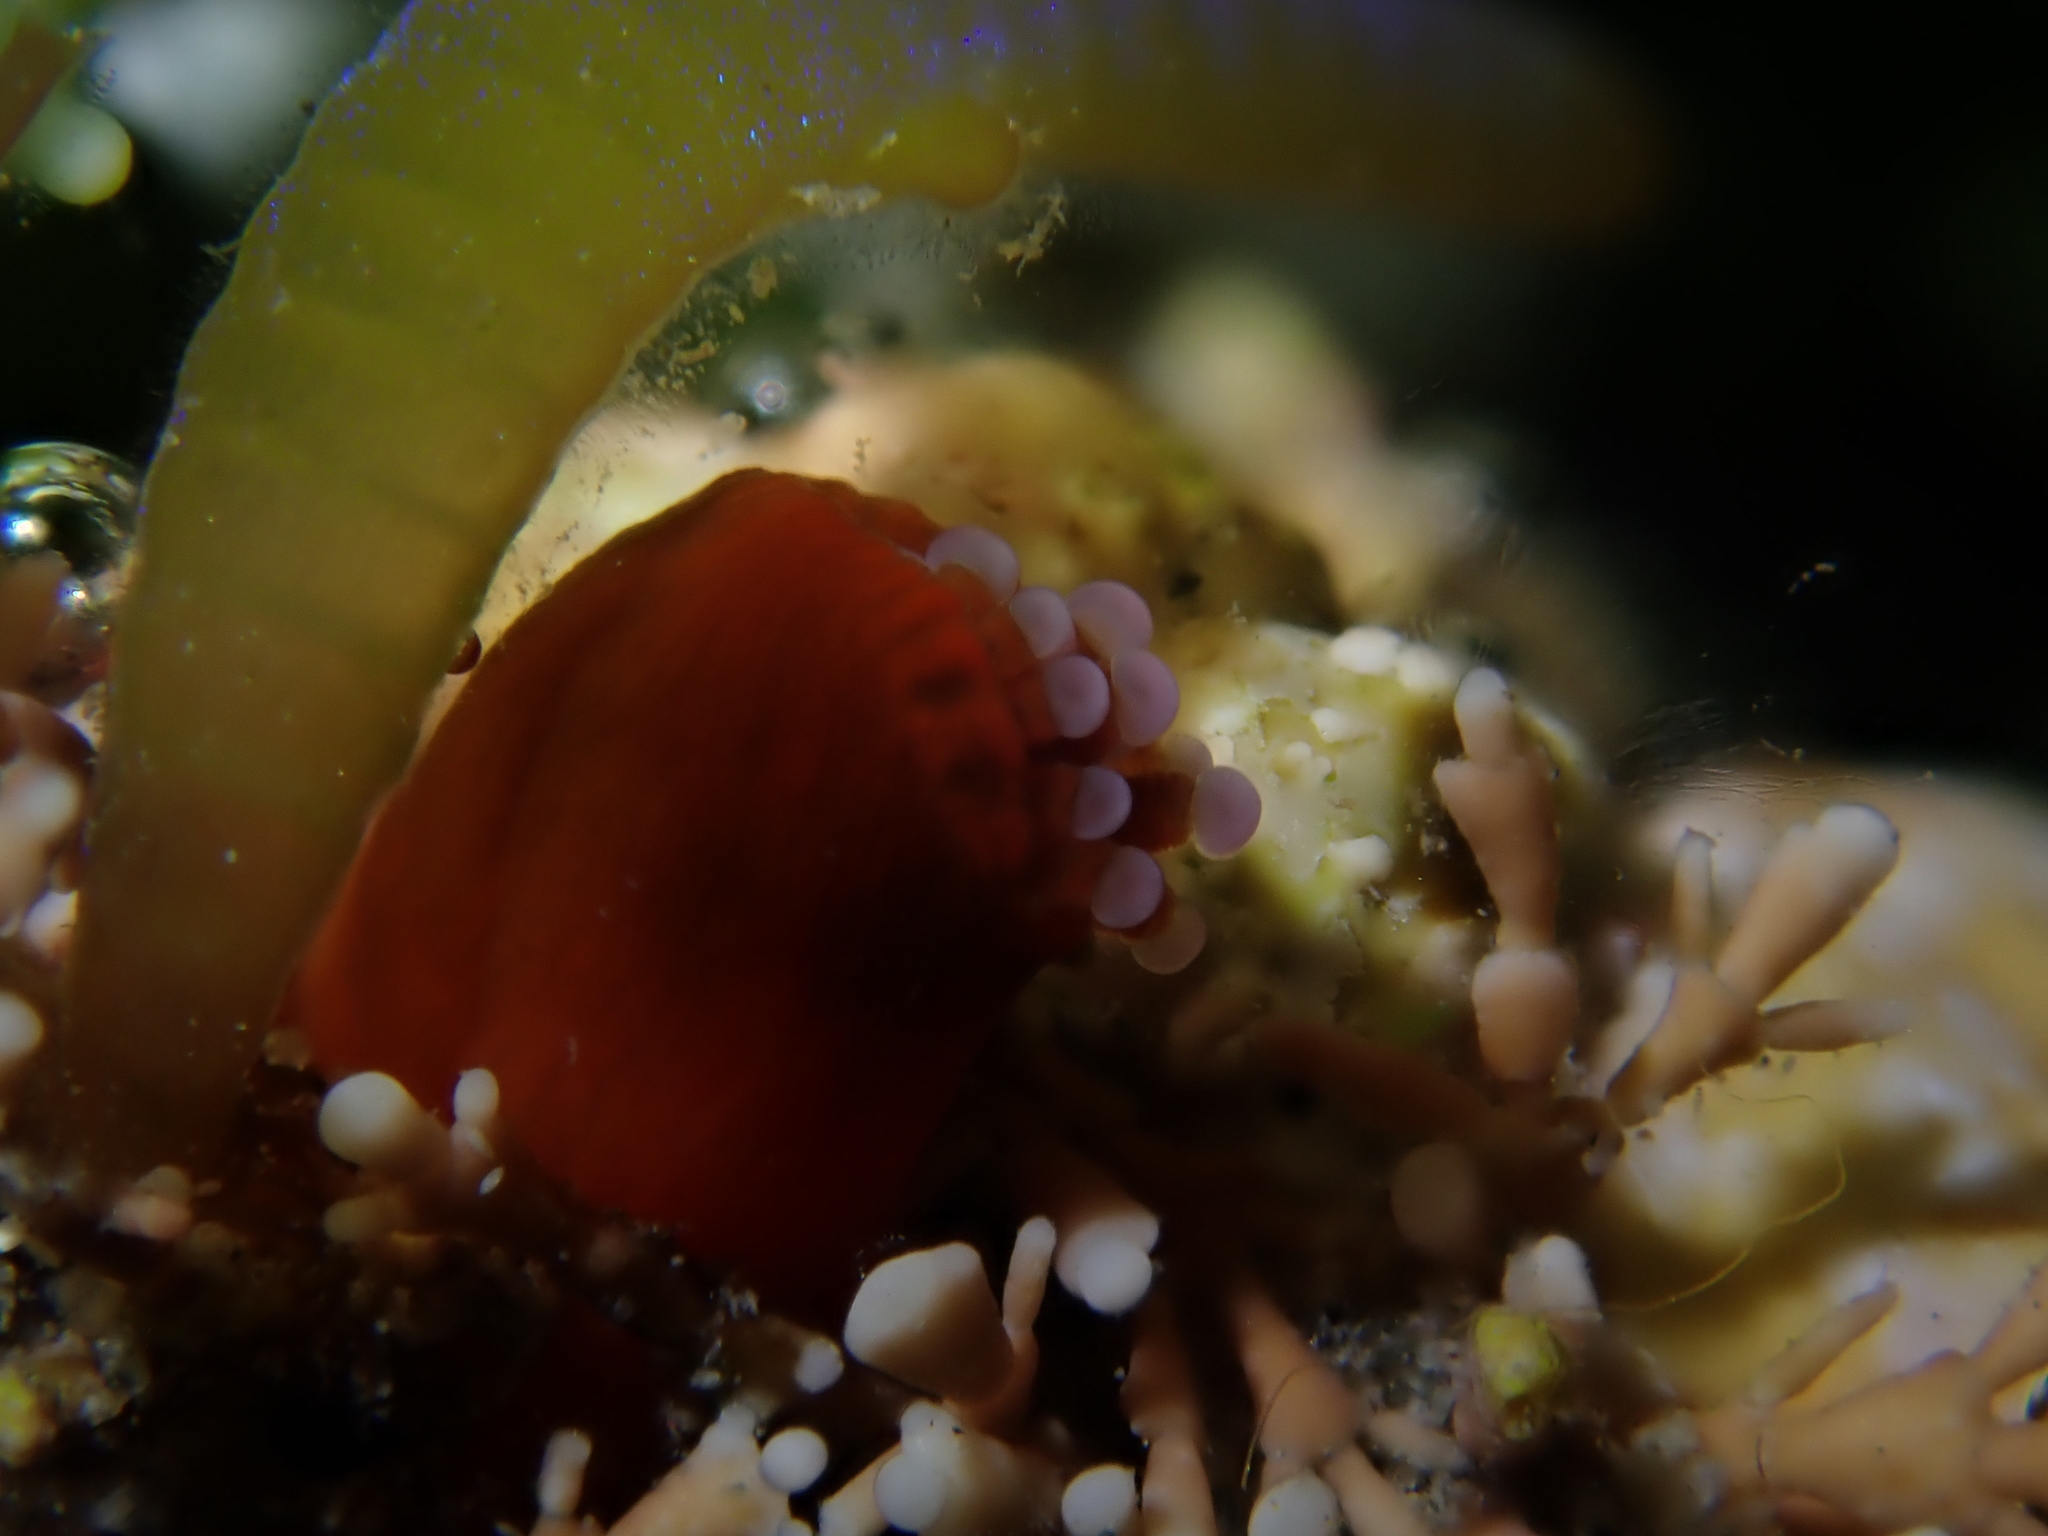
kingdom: Animalia
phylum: Cnidaria
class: Anthozoa
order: Corallimorpharia
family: Corallimorphidae
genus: Corynactis
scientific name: Corynactis australis
